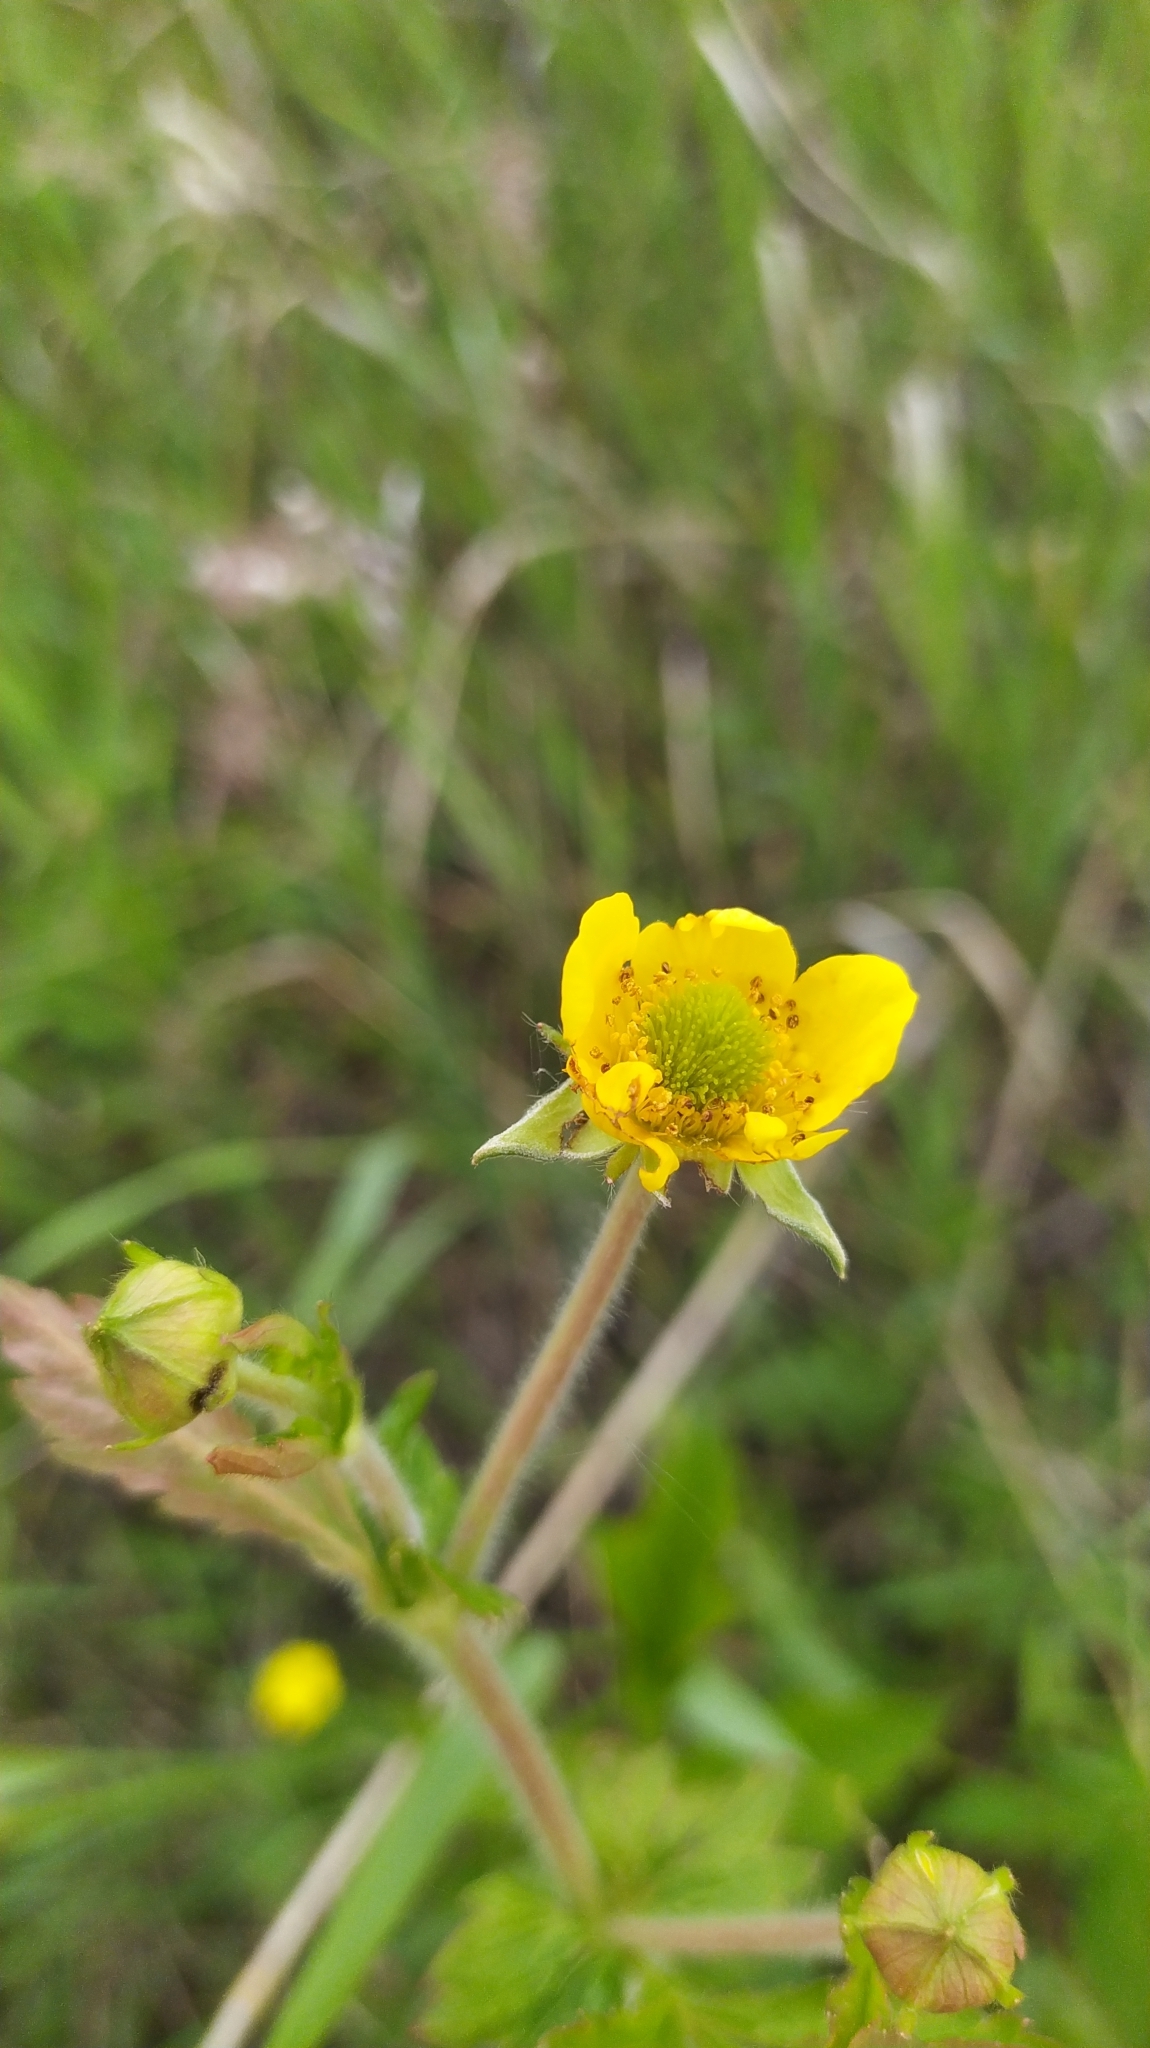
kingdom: Plantae
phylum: Tracheophyta
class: Magnoliopsida
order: Rosales
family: Rosaceae
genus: Geum
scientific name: Geum aleppicum
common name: Yellow avens
